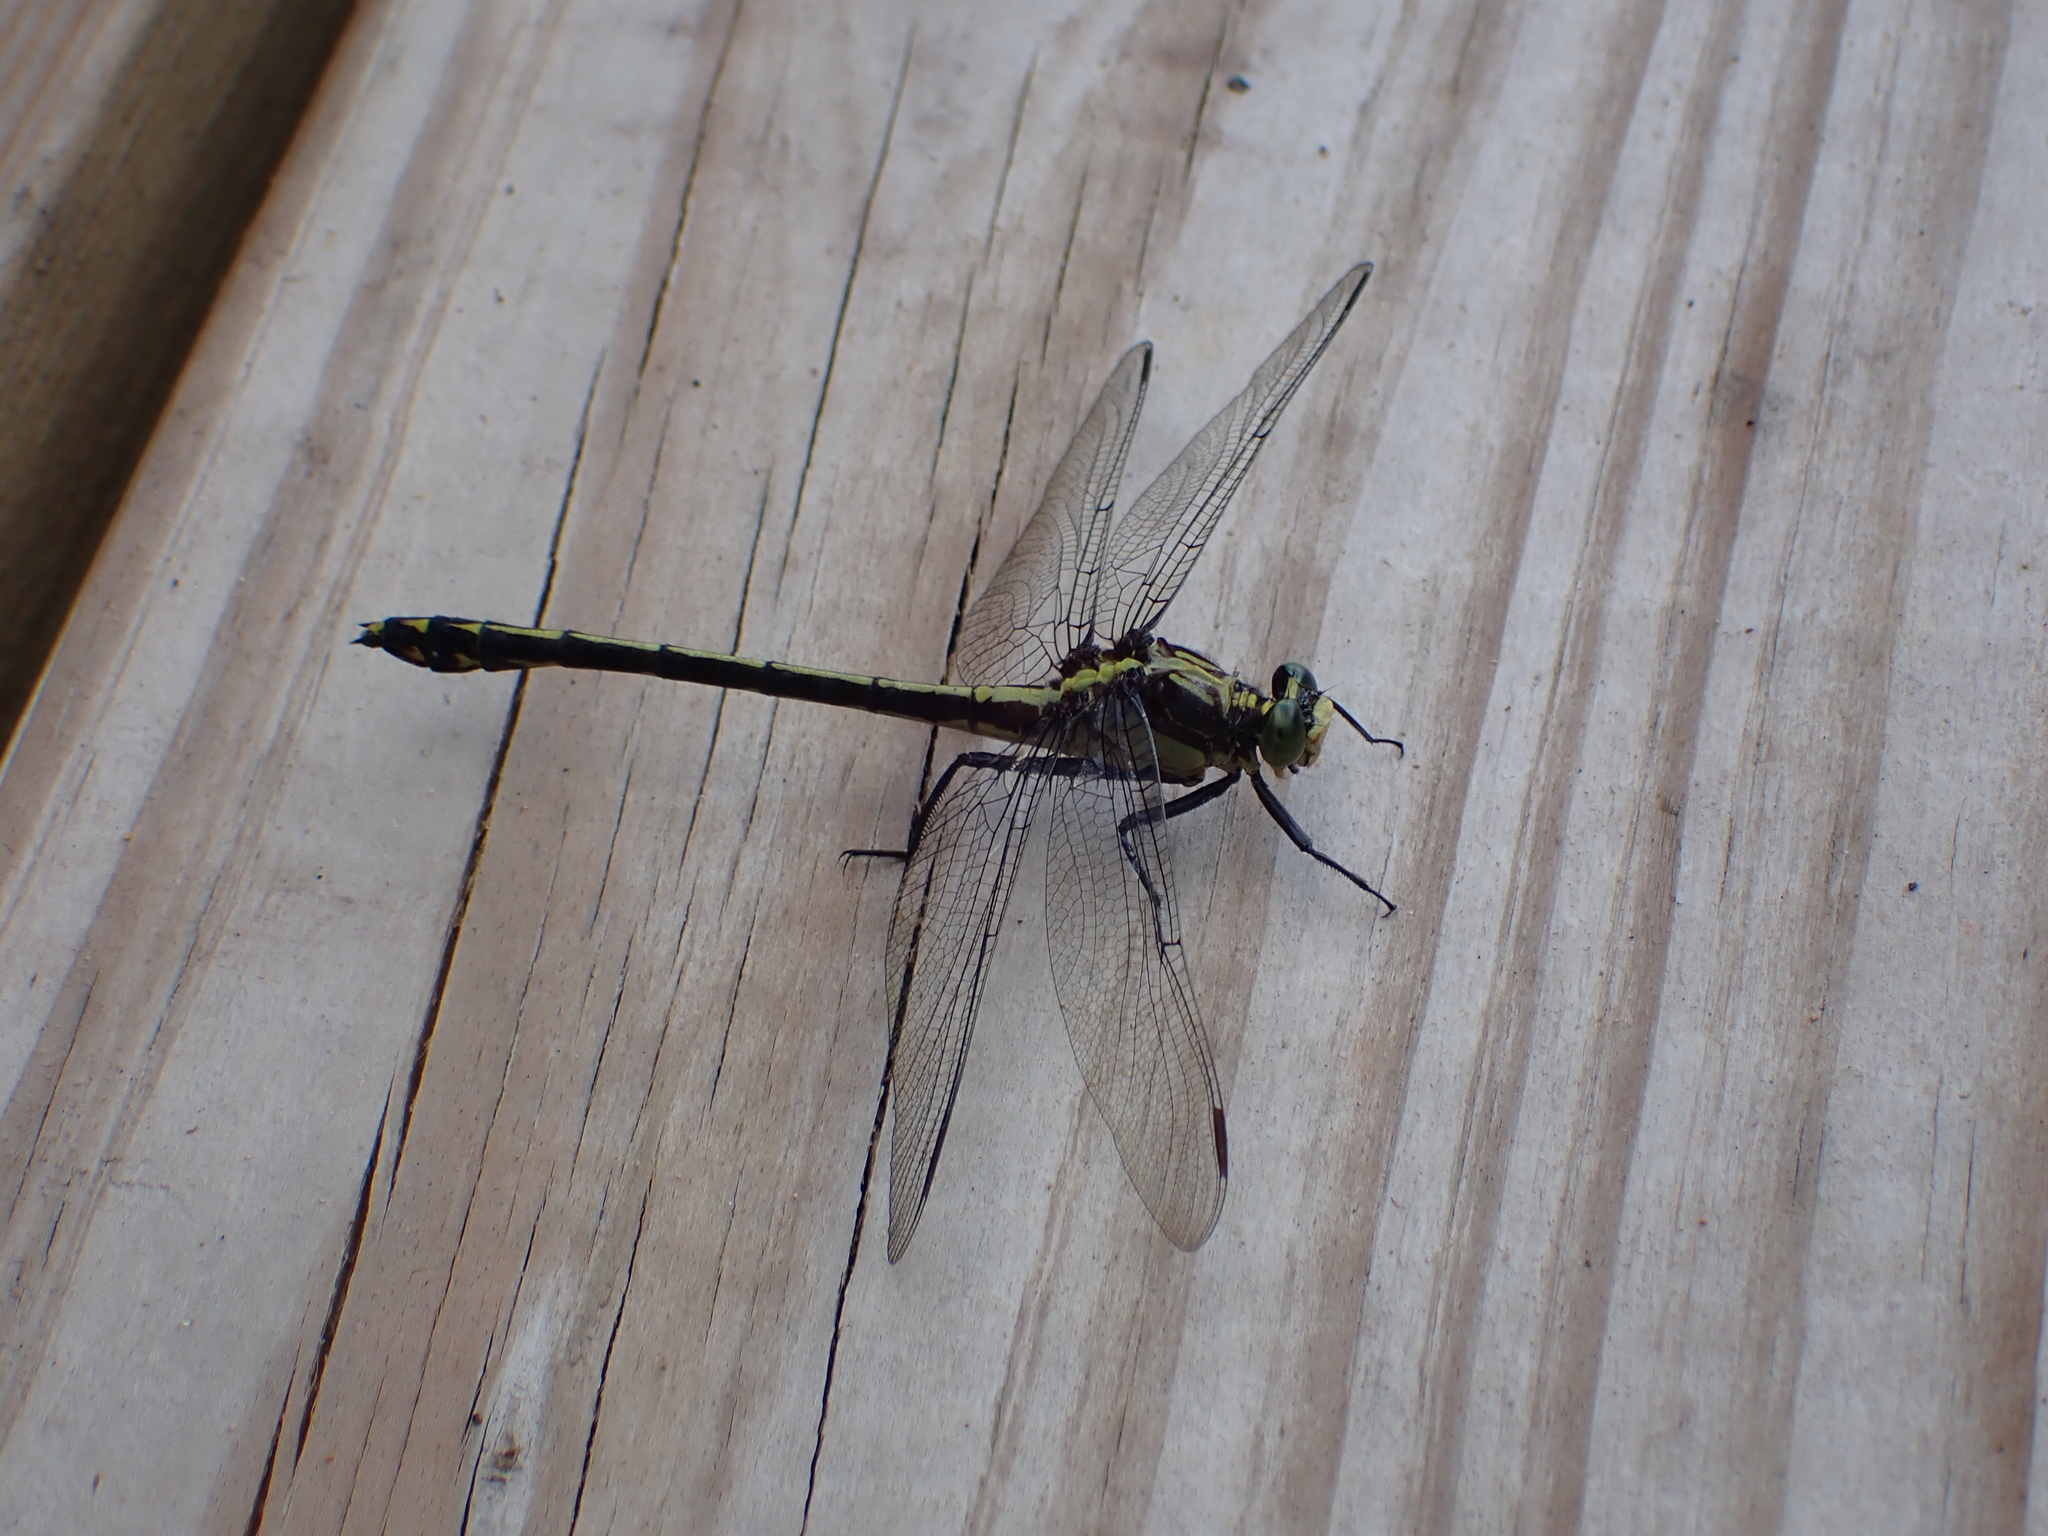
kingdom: Animalia
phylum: Arthropoda
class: Insecta
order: Odonata
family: Gomphidae
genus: Dromogomphus
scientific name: Dromogomphus spinosus
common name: Black-shouldered spinyleg
